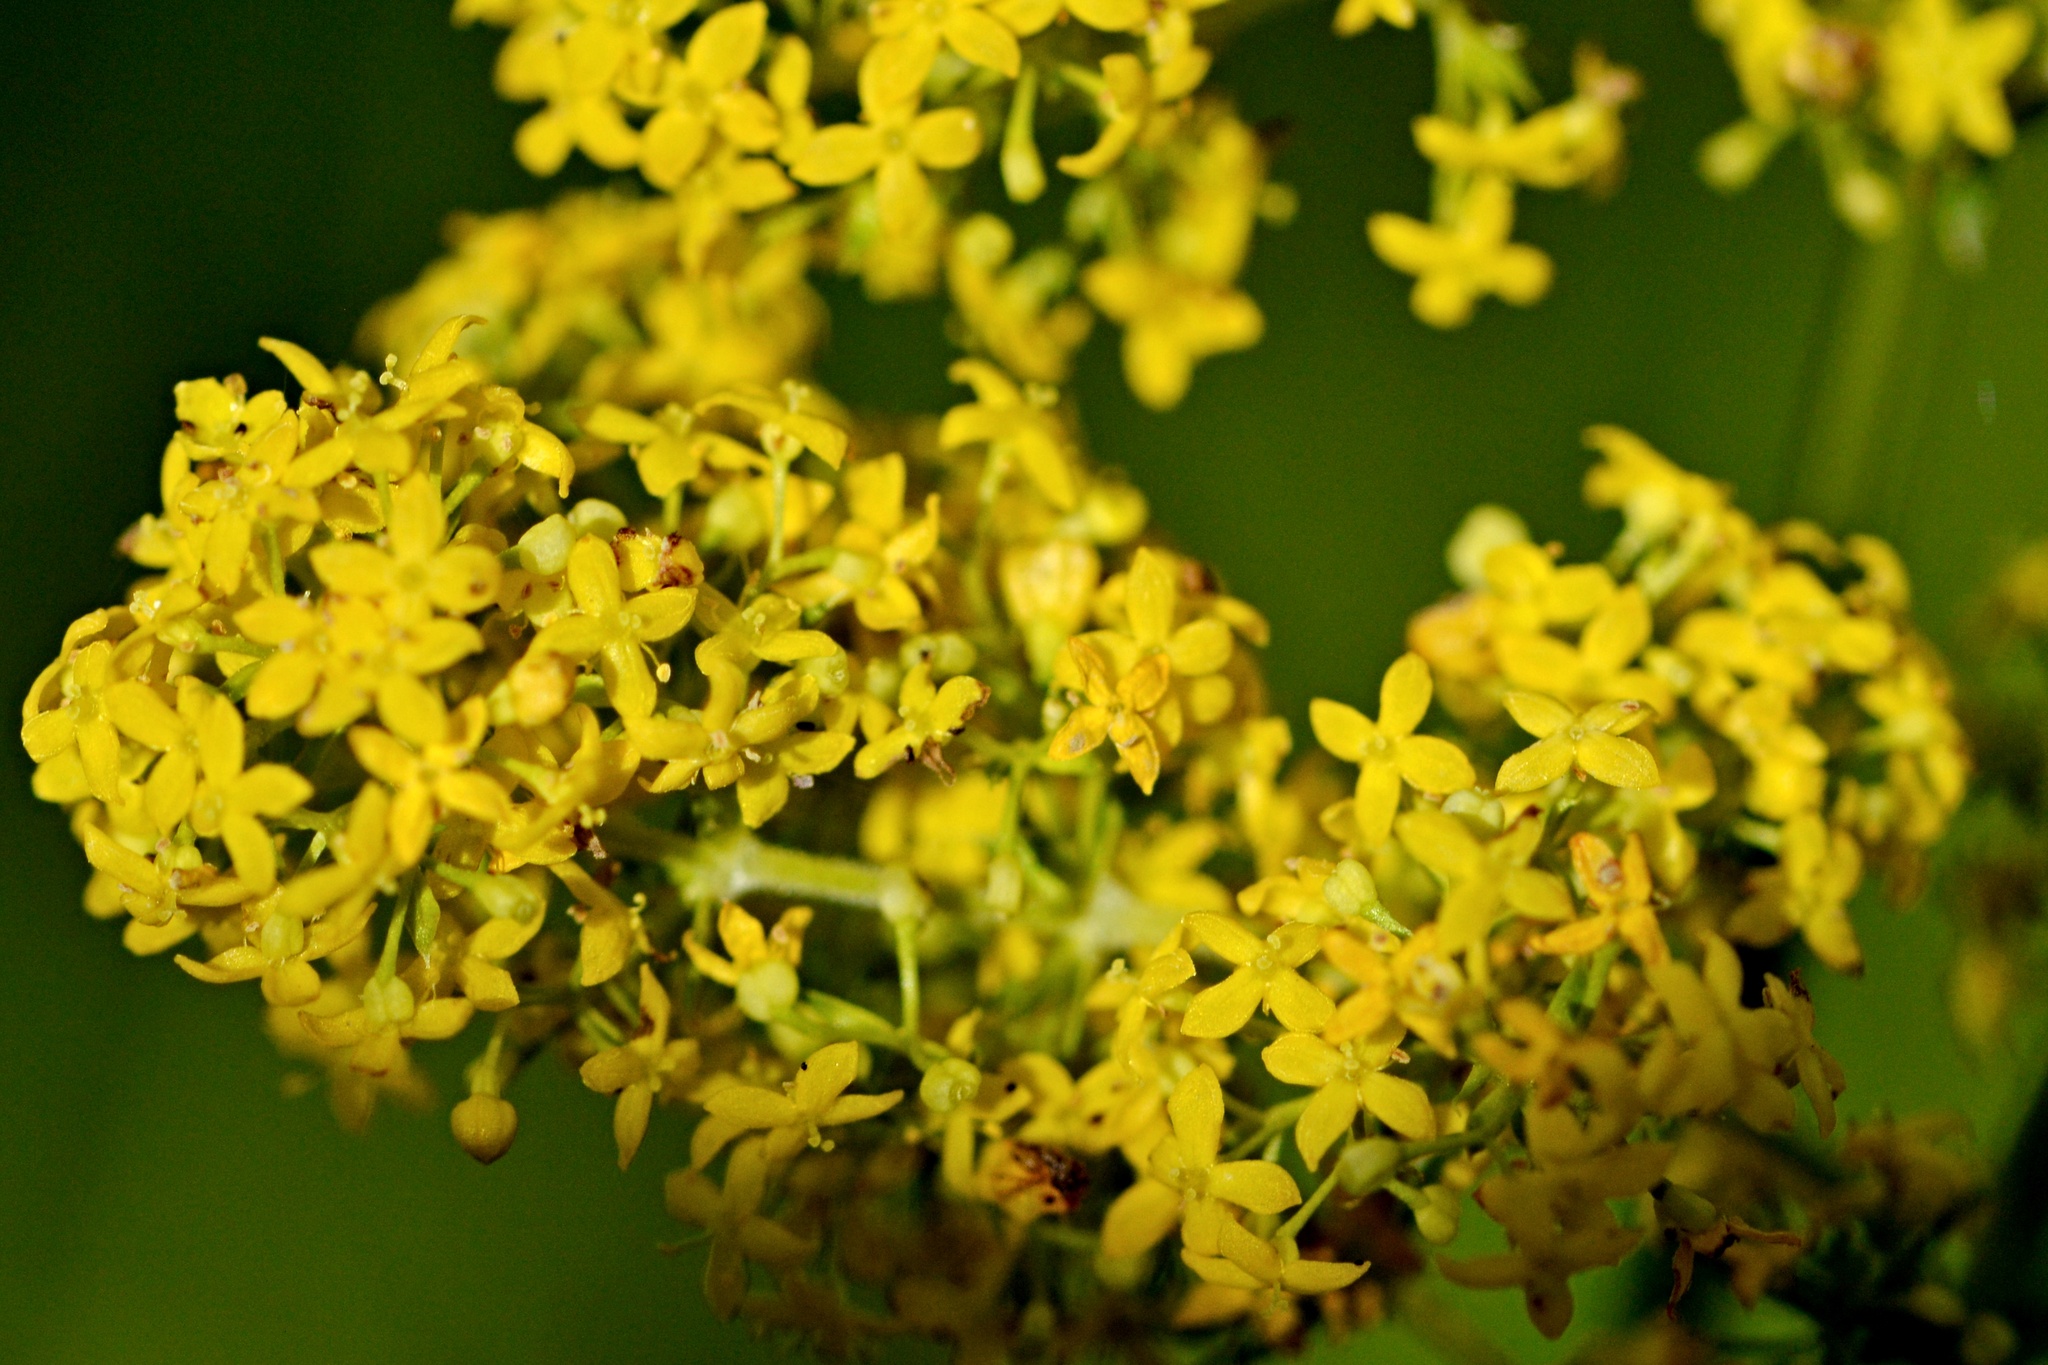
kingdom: Plantae
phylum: Tracheophyta
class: Magnoliopsida
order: Gentianales
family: Rubiaceae
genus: Galium
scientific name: Galium verum
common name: Lady's bedstraw
